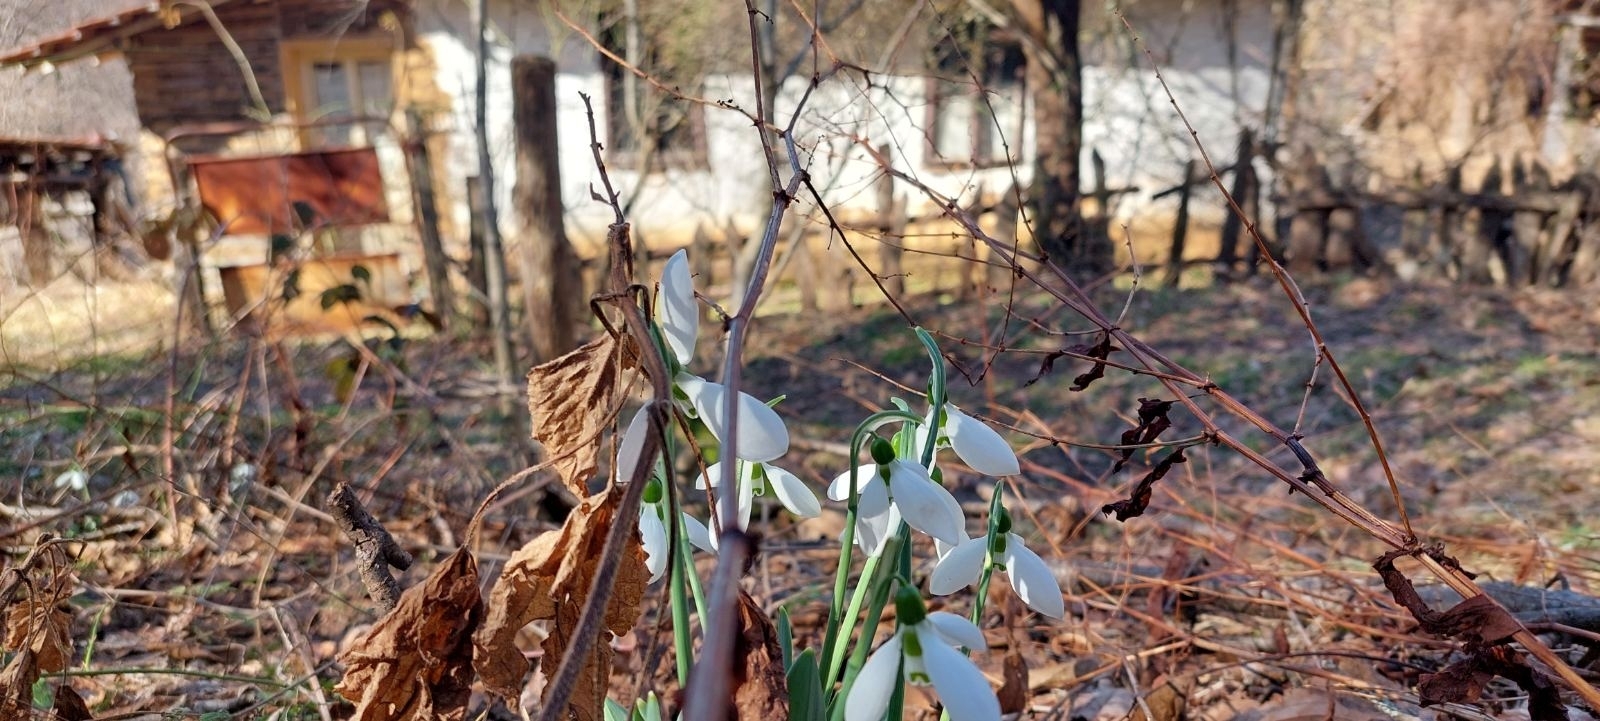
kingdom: Plantae
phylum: Tracheophyta
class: Liliopsida
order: Asparagales
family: Amaryllidaceae
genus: Galanthus
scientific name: Galanthus elwesii
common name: Greater snowdrop
